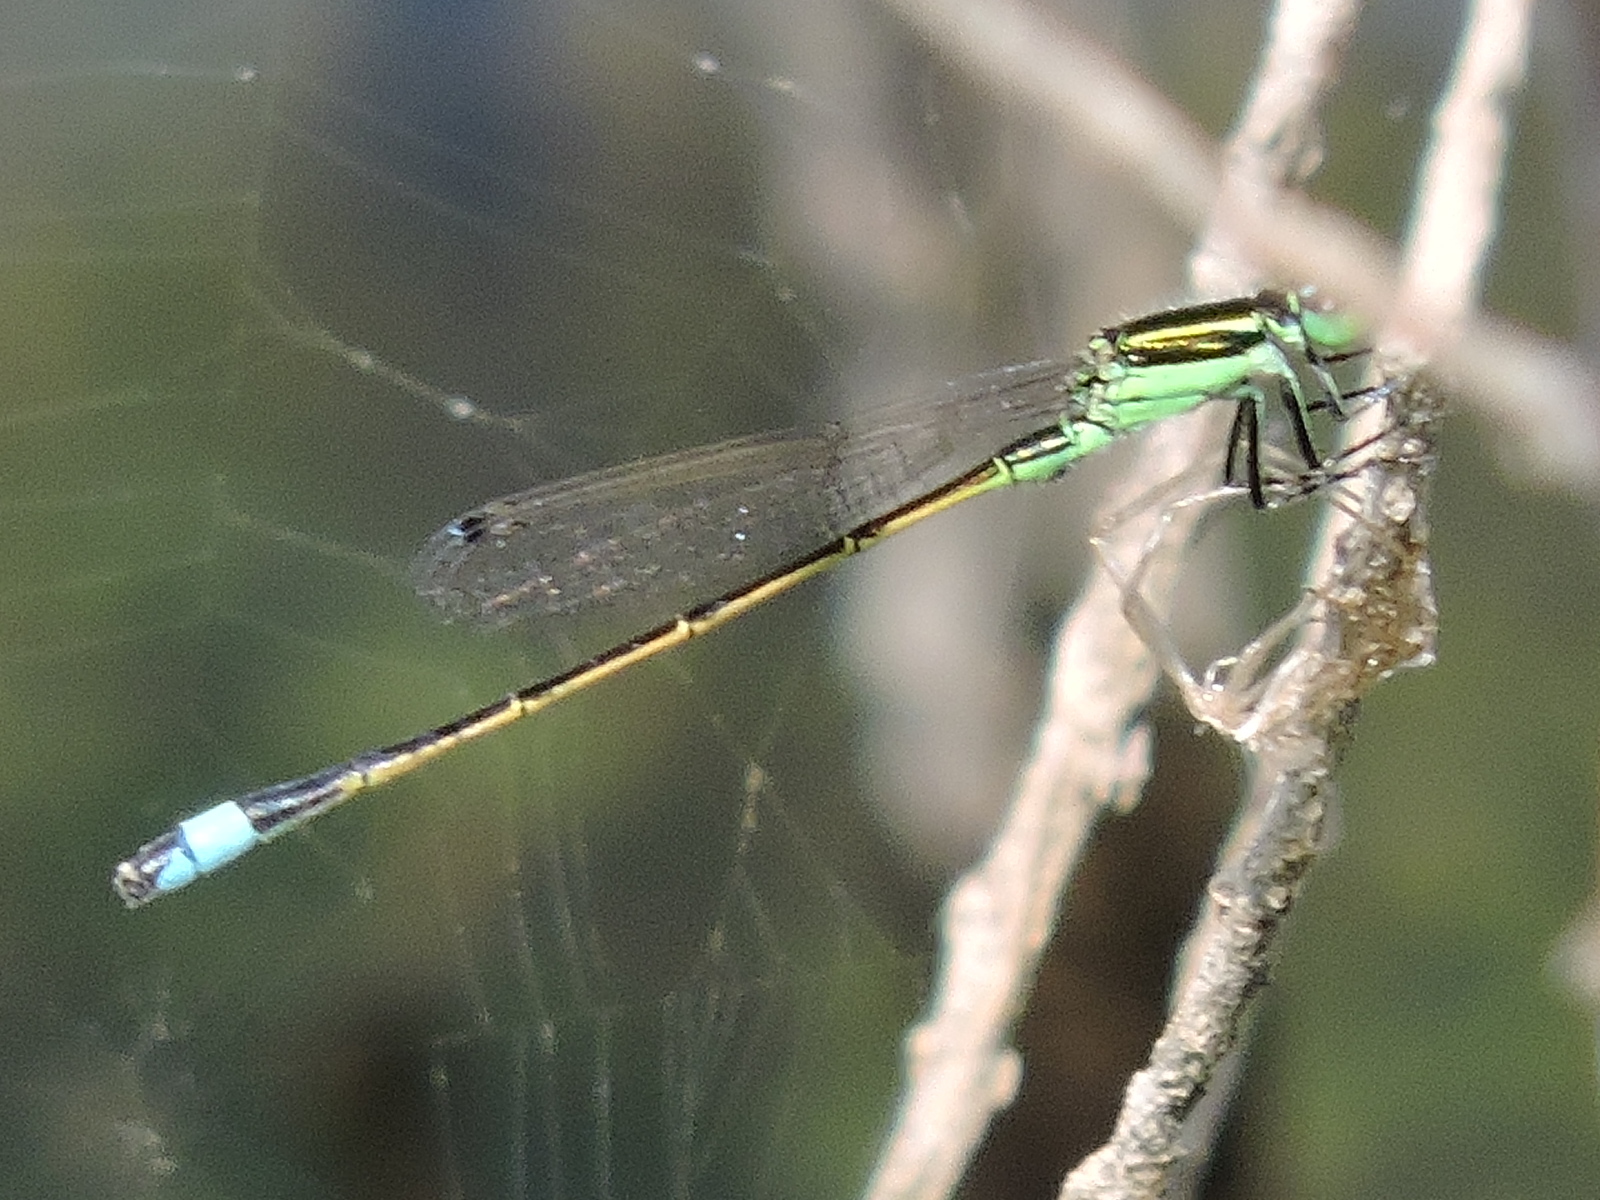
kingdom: Animalia
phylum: Arthropoda
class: Insecta
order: Odonata
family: Coenagrionidae
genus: Ischnura
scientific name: Ischnura ramburii
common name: Rambur's forktail
